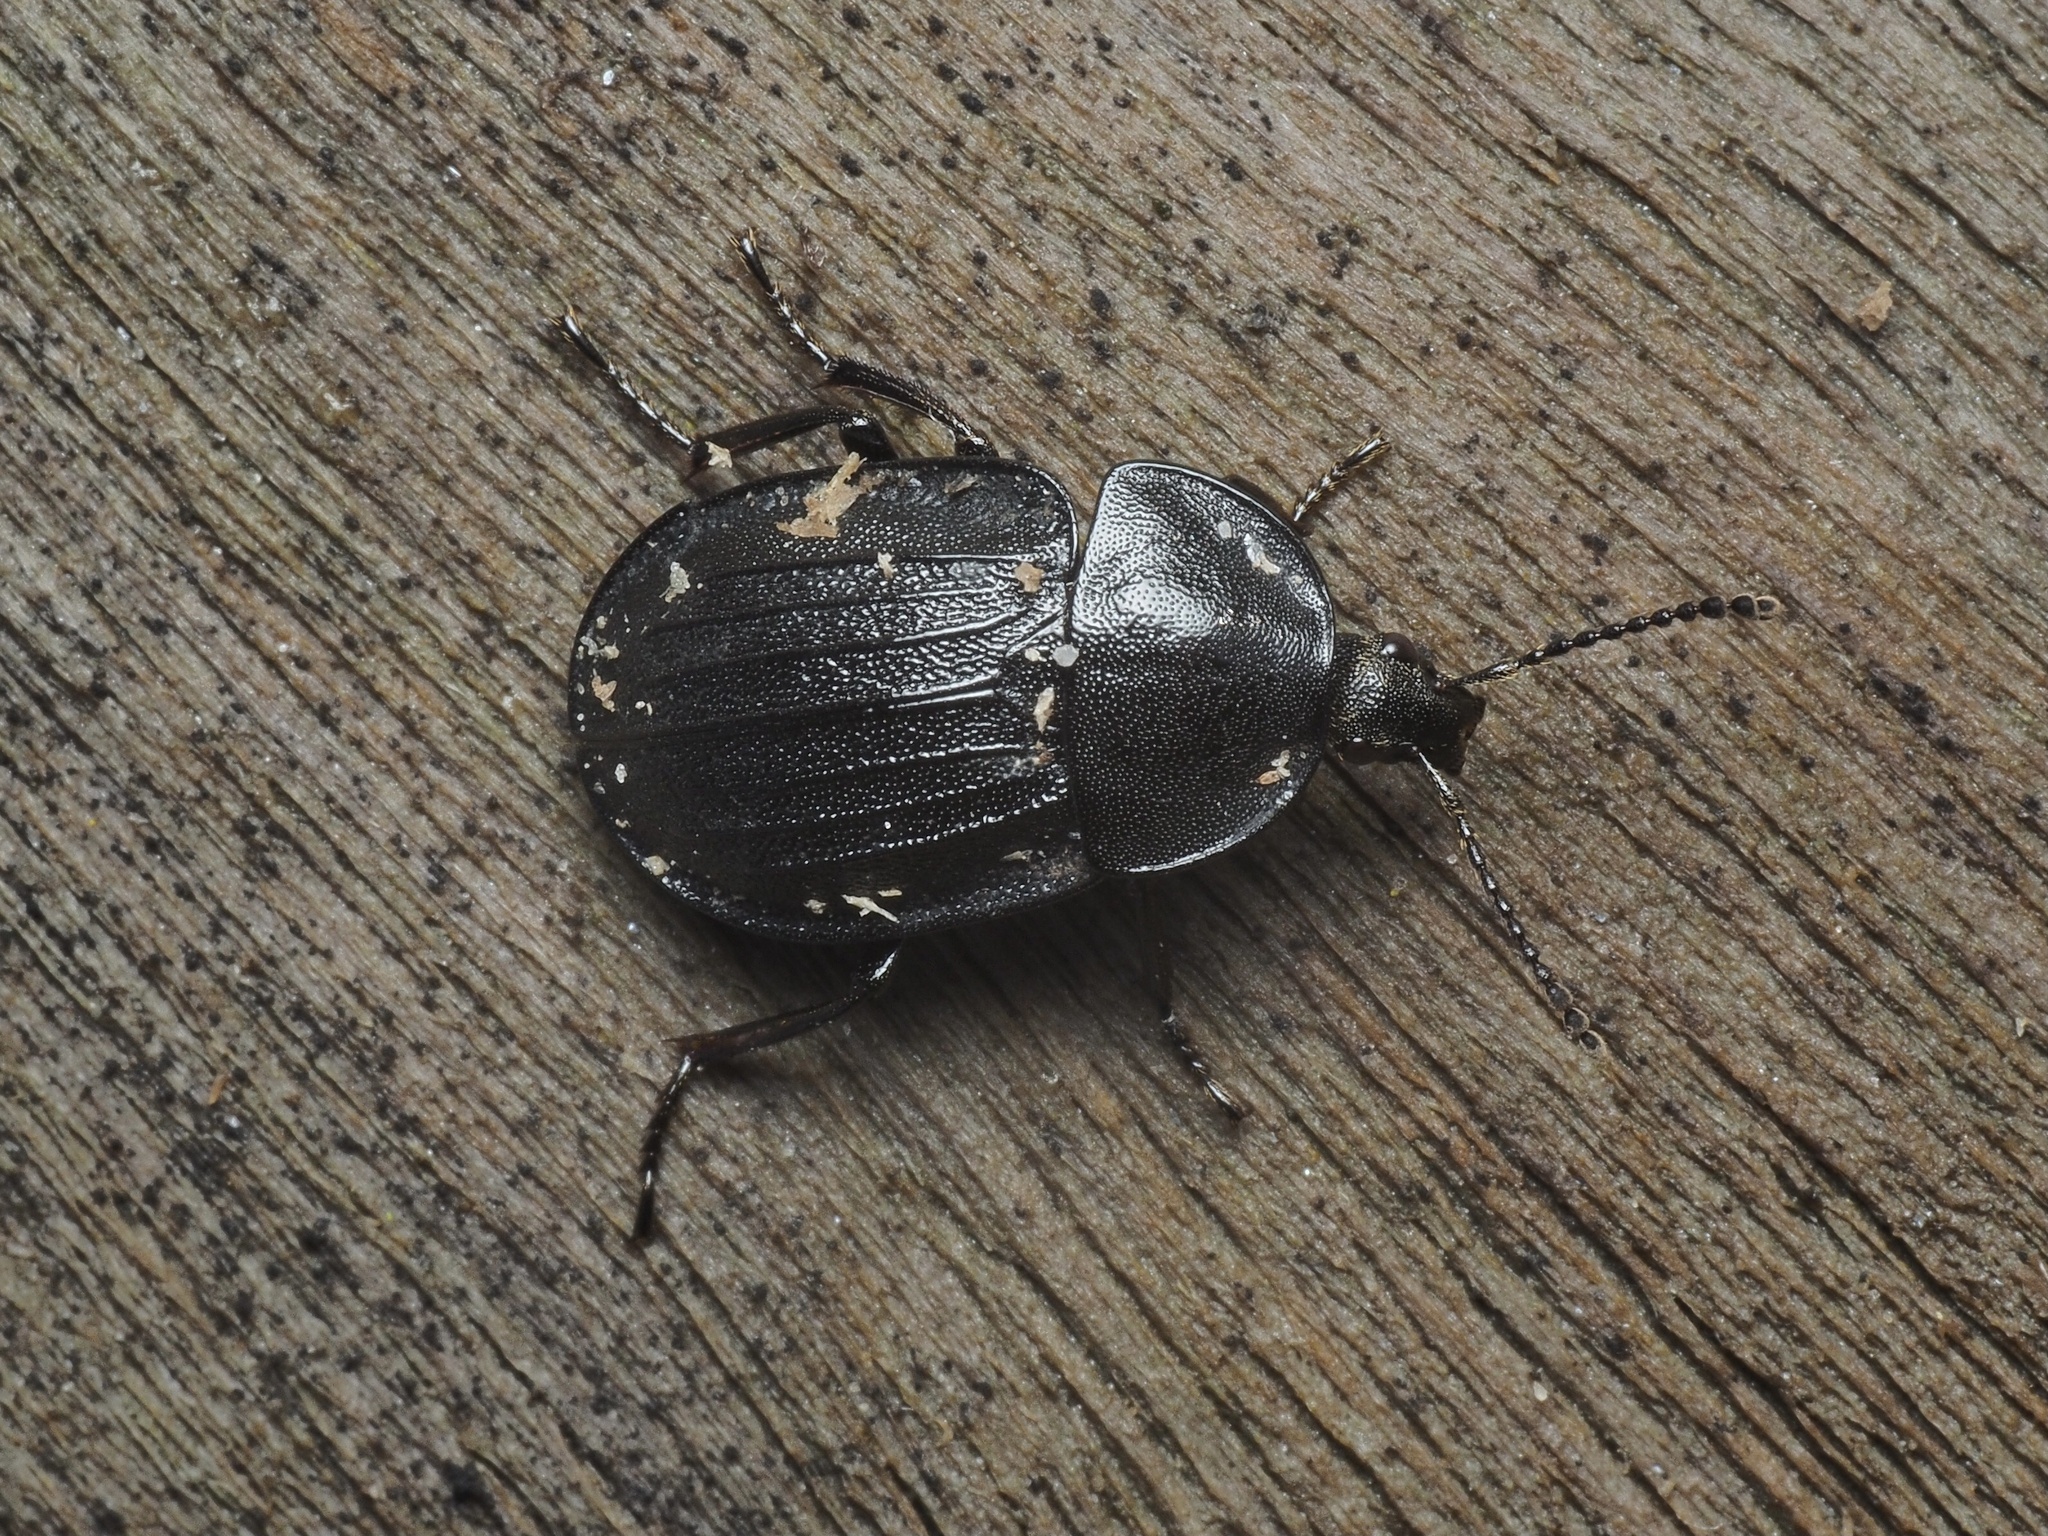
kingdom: Animalia
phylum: Arthropoda
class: Insecta
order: Coleoptera
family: Staphylinidae
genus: Silpha
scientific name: Silpha atrata
